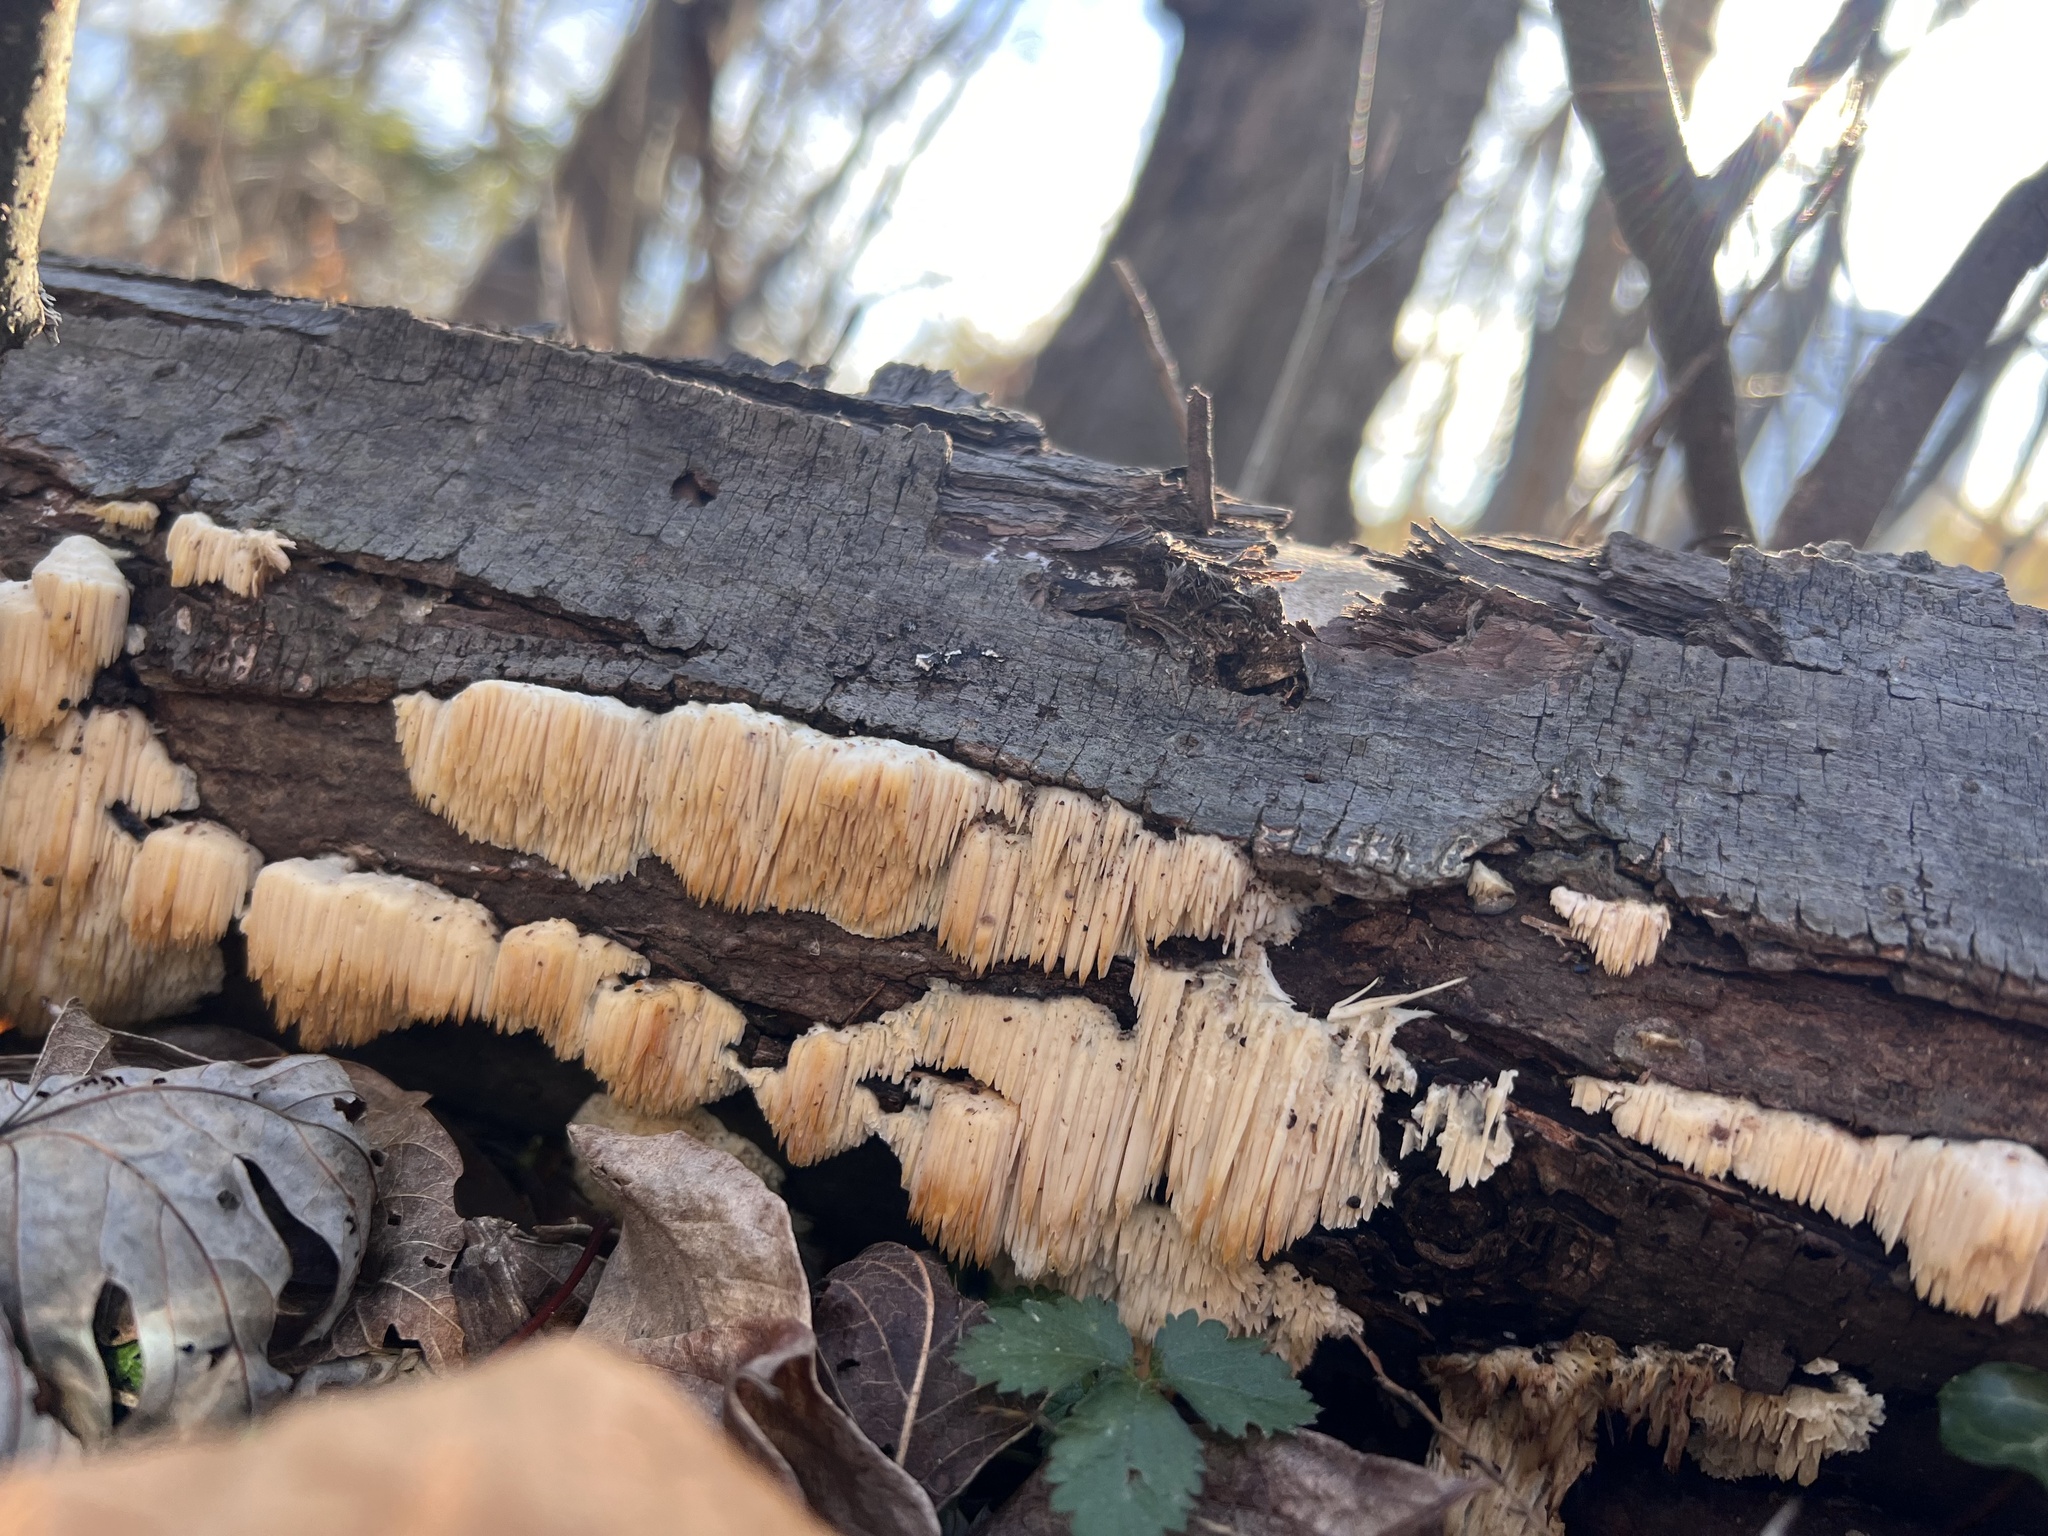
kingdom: Fungi
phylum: Basidiomycota
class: Agaricomycetes
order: Agaricales
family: Radulomycetaceae
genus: Radulomyces
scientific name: Radulomyces copelandii
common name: Asian beauty
